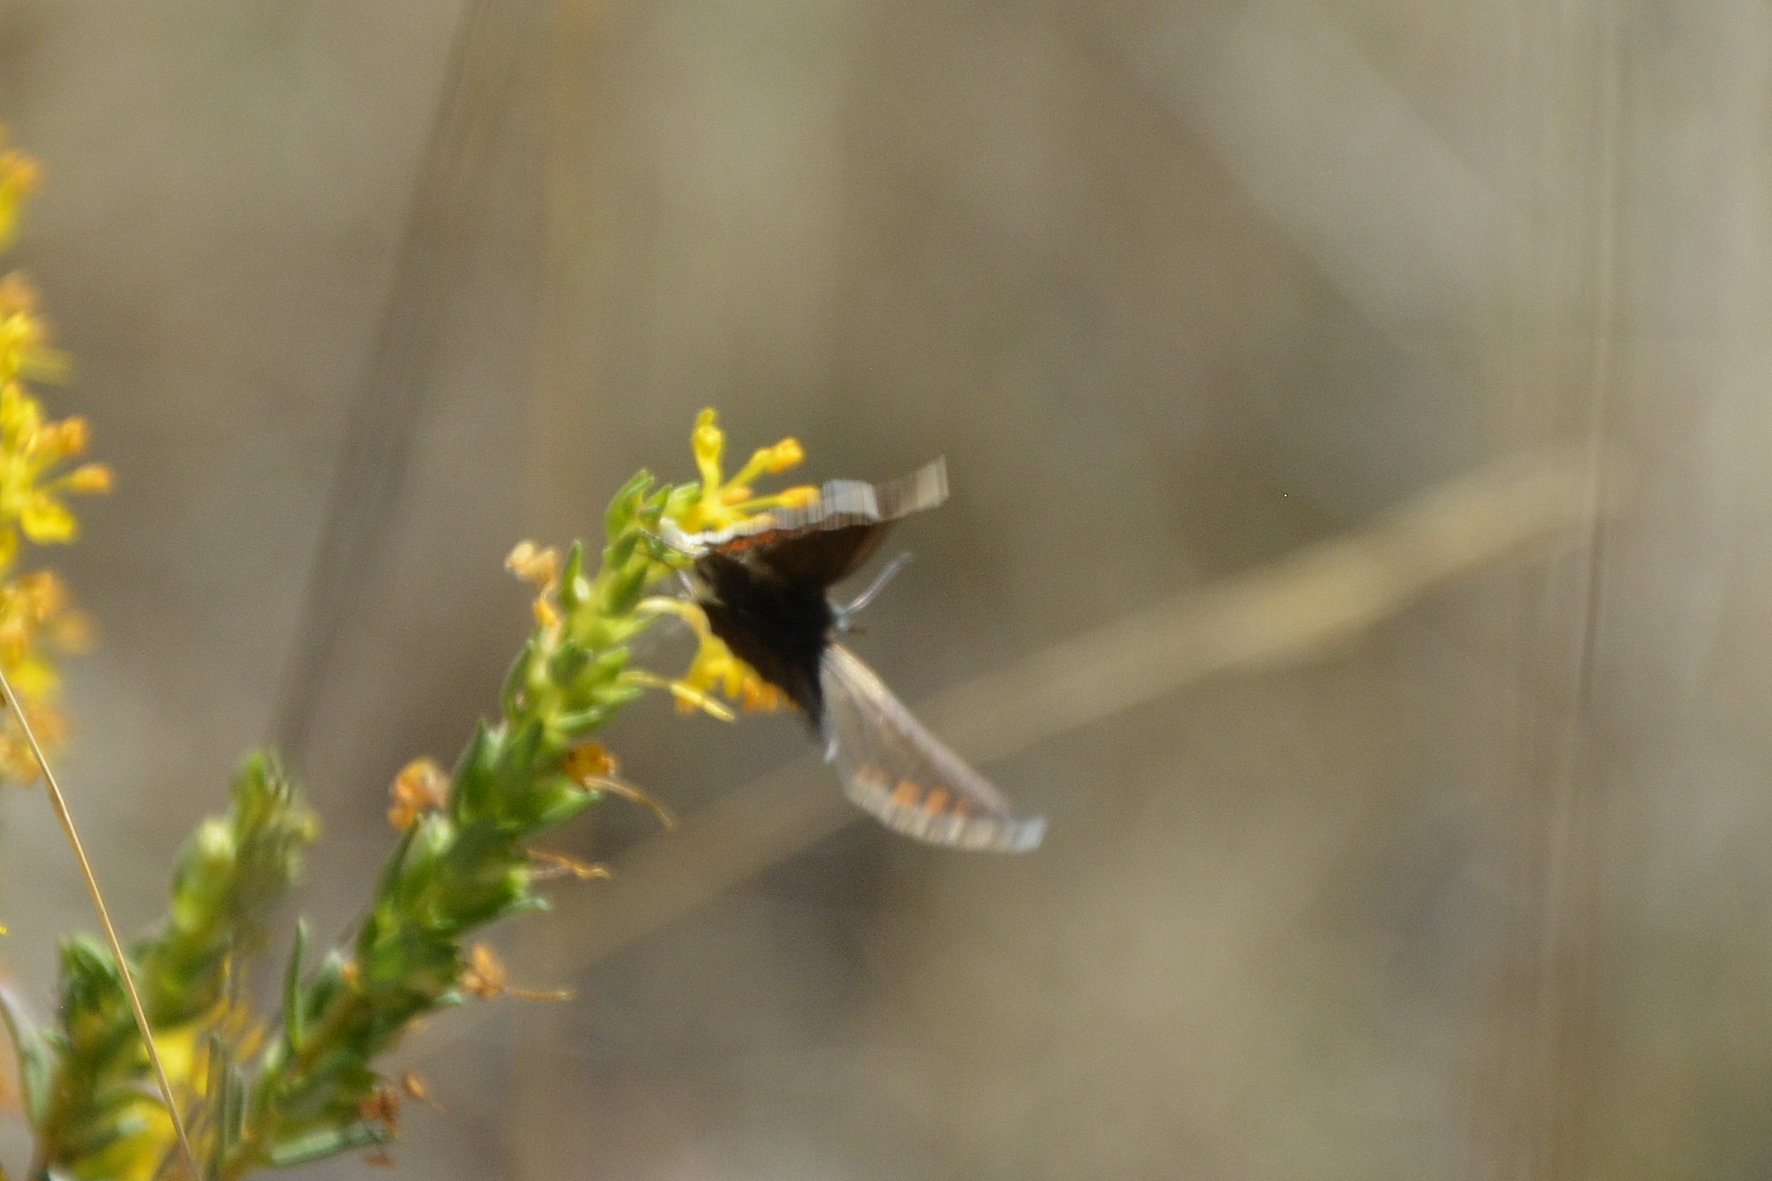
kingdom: Animalia
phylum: Arthropoda
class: Insecta
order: Lepidoptera
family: Lycaenidae
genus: Polyommatus
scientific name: Polyommatus icarus
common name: Common blue
